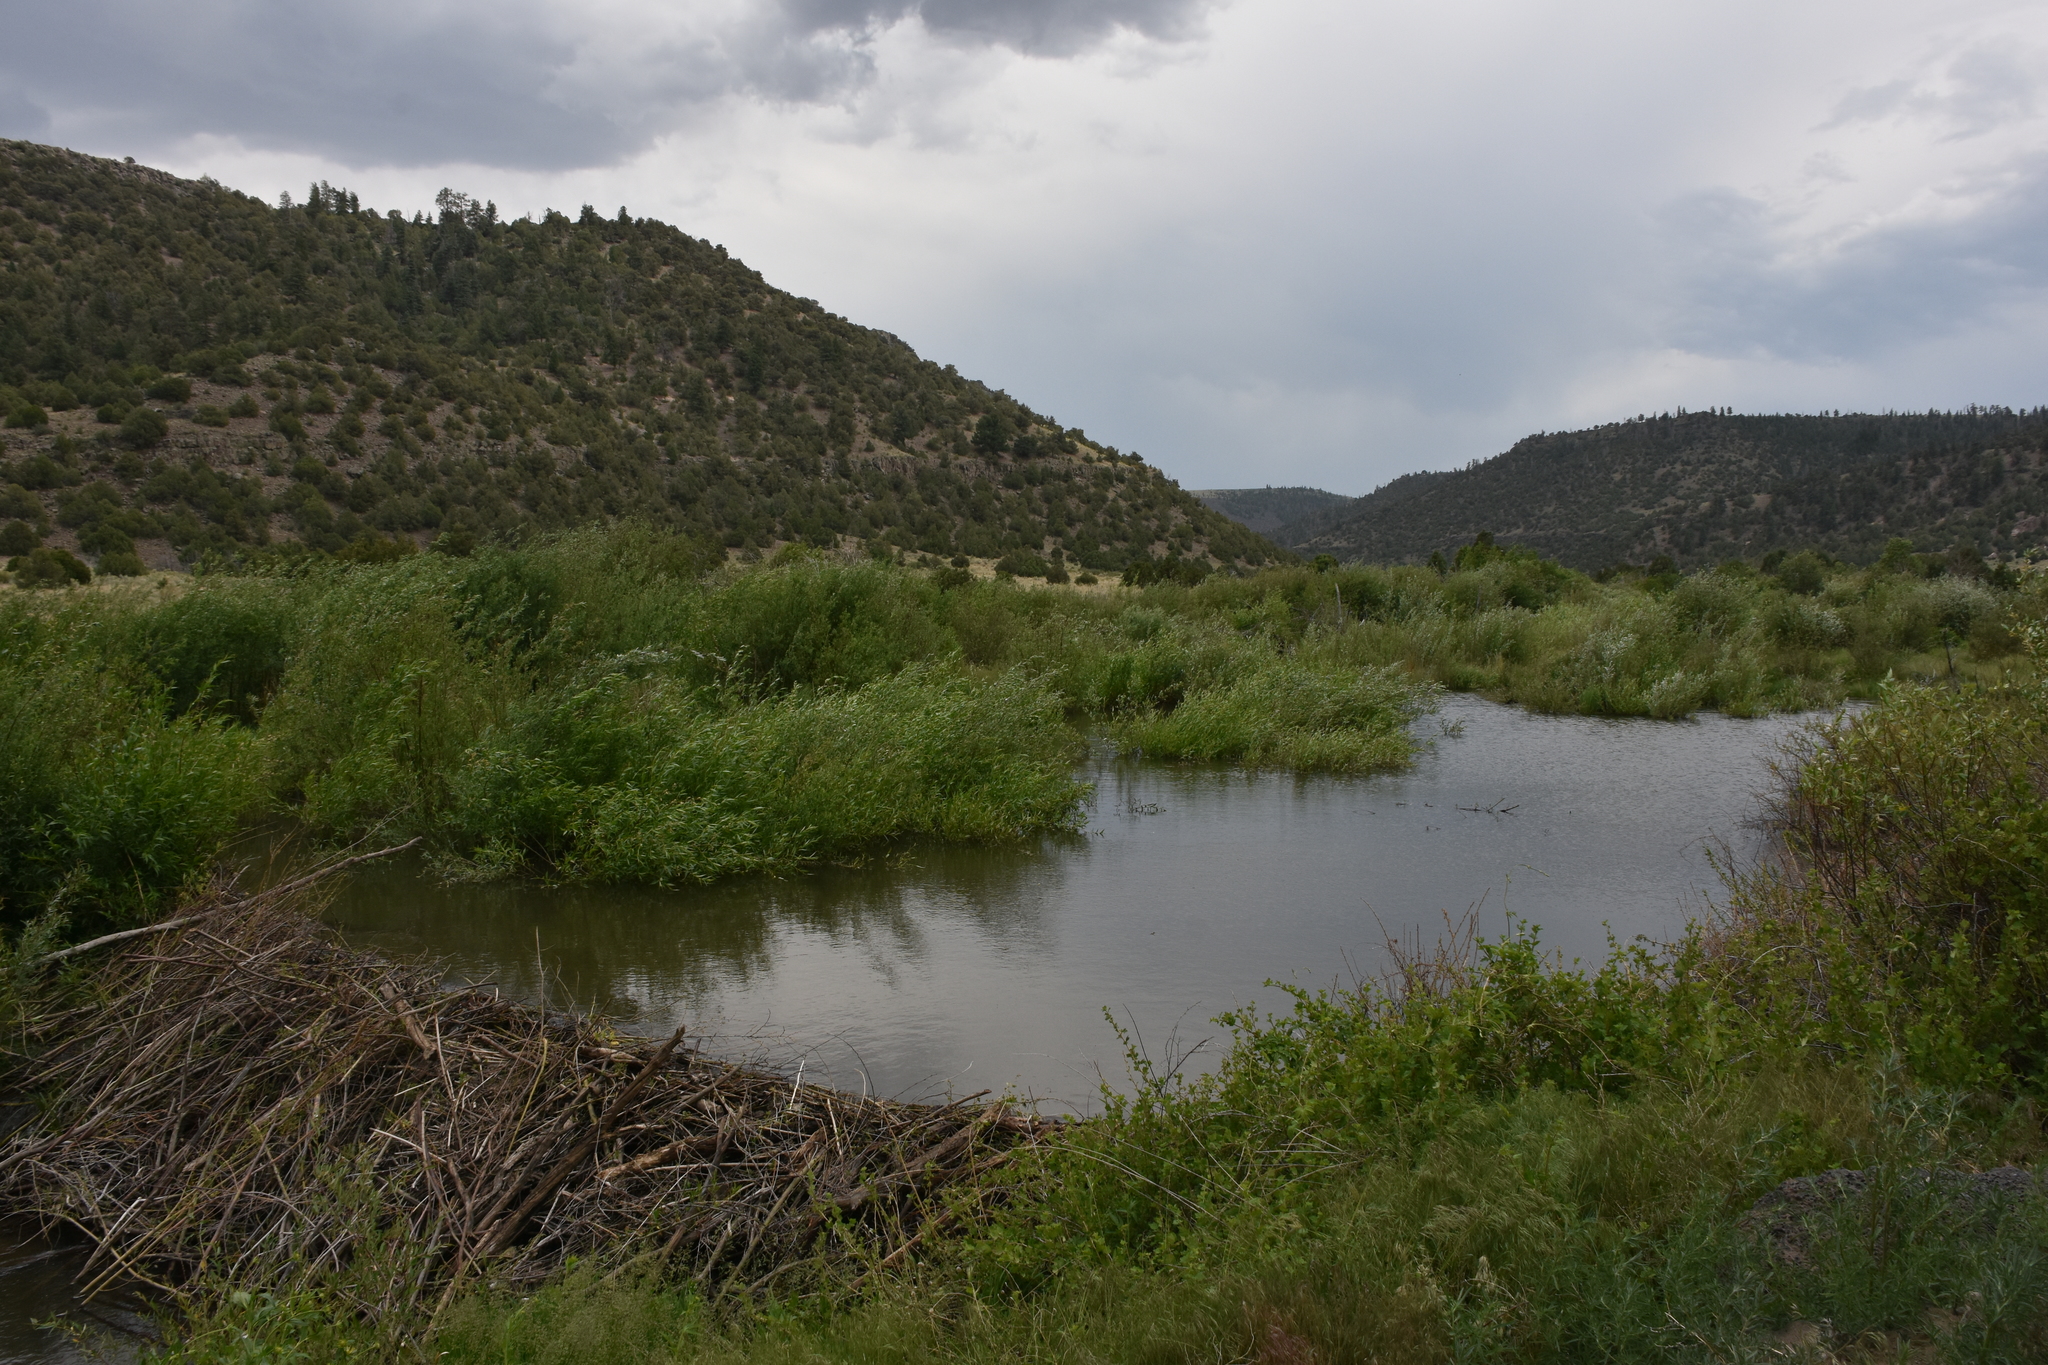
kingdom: Animalia
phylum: Chordata
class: Mammalia
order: Rodentia
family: Castoridae
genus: Castor
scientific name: Castor canadensis
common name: American beaver
